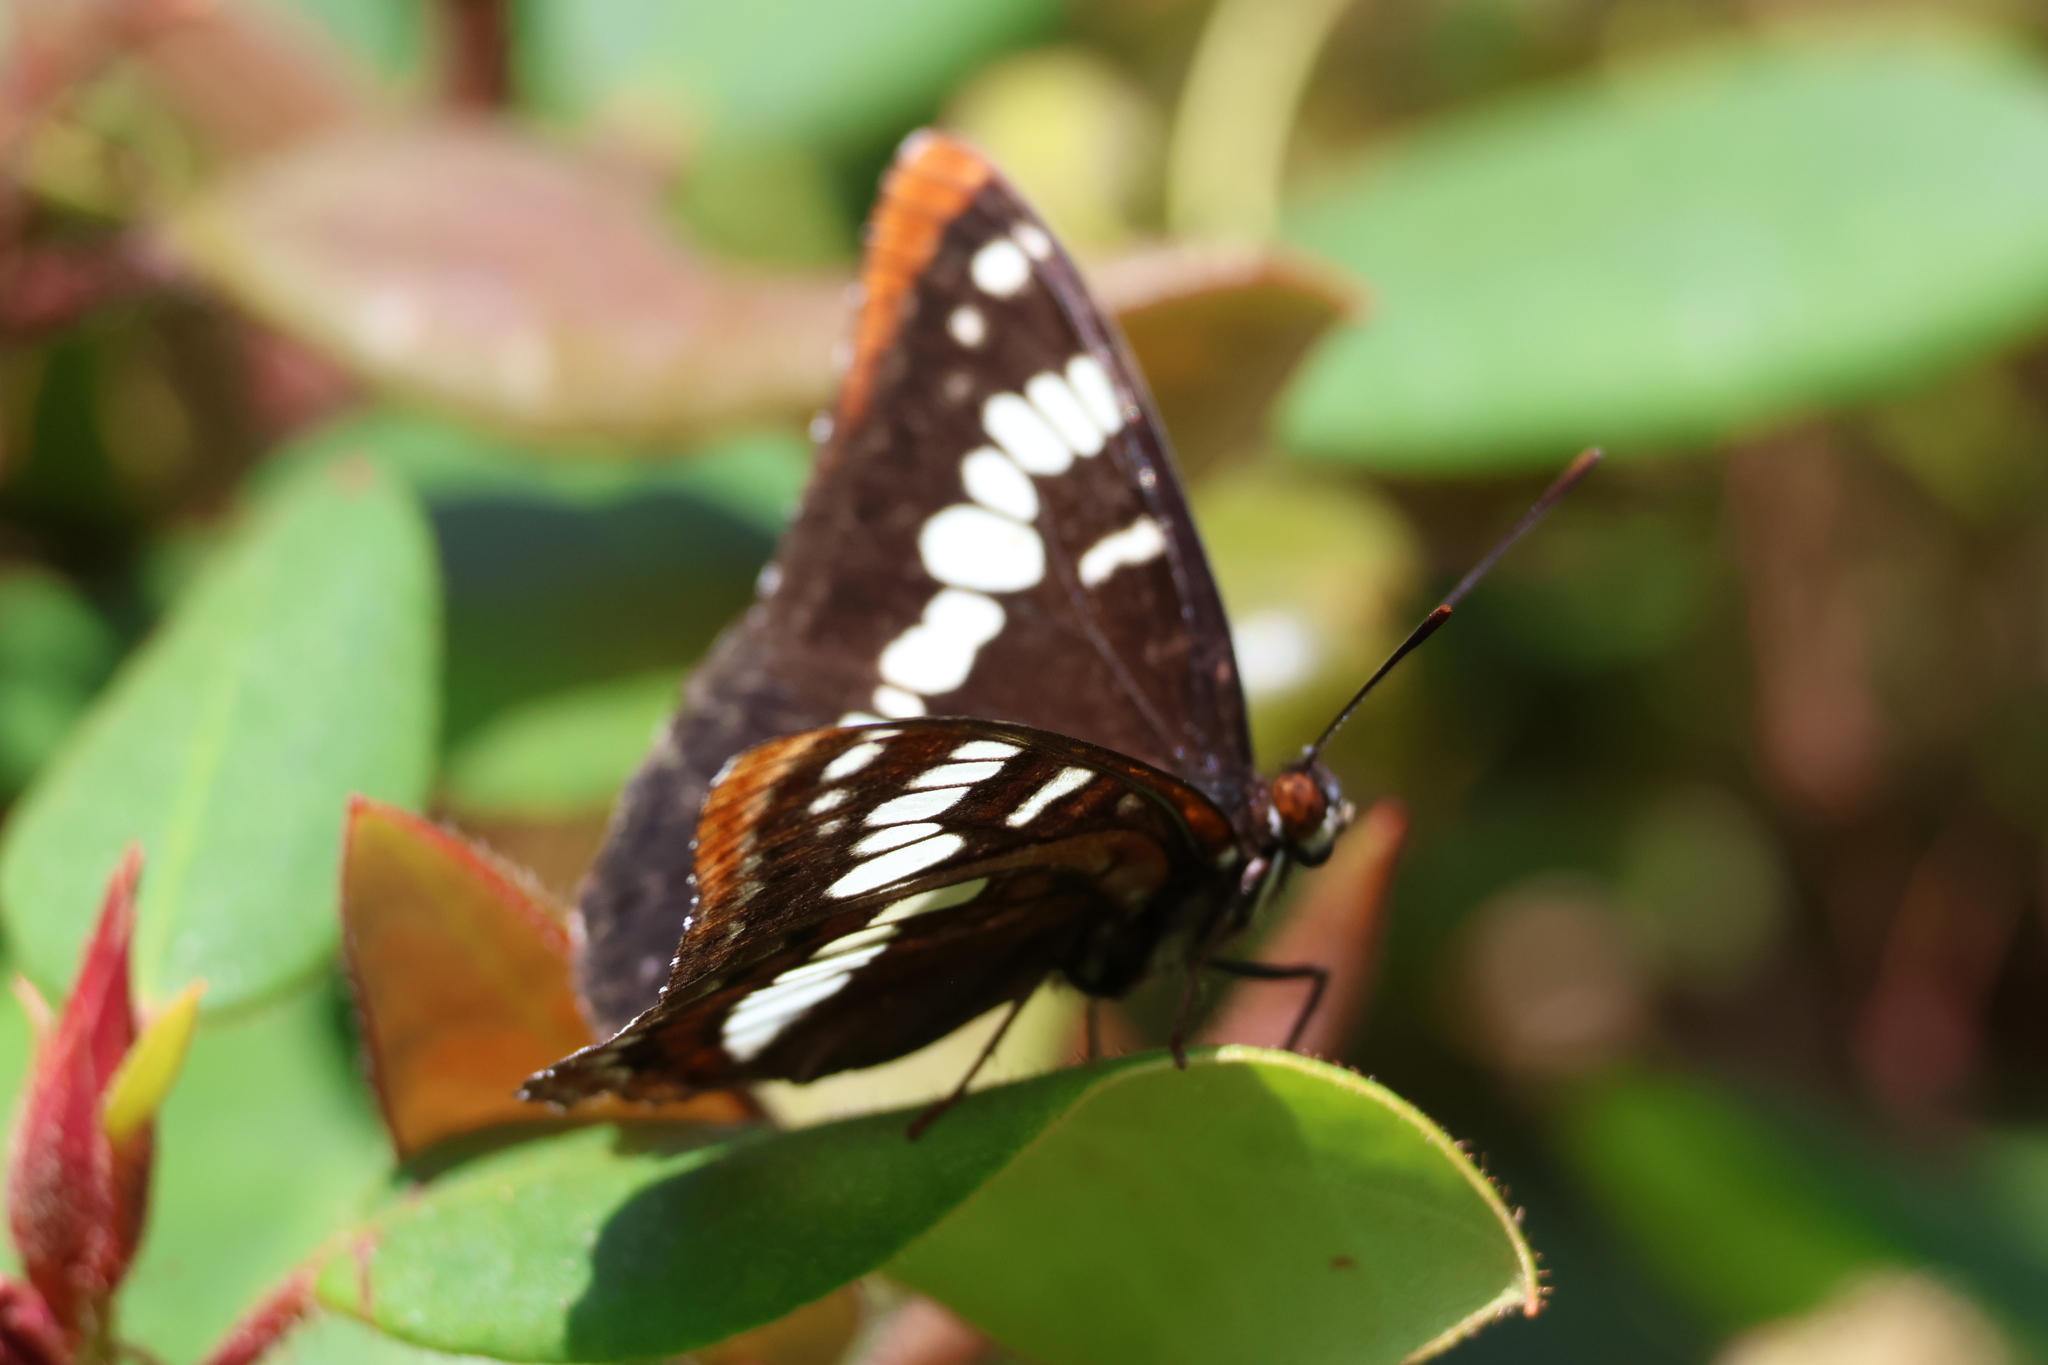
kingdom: Animalia
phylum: Arthropoda
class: Insecta
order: Lepidoptera
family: Nymphalidae
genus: Limenitis
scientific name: Limenitis lorquini
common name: Lorquin's admiral
